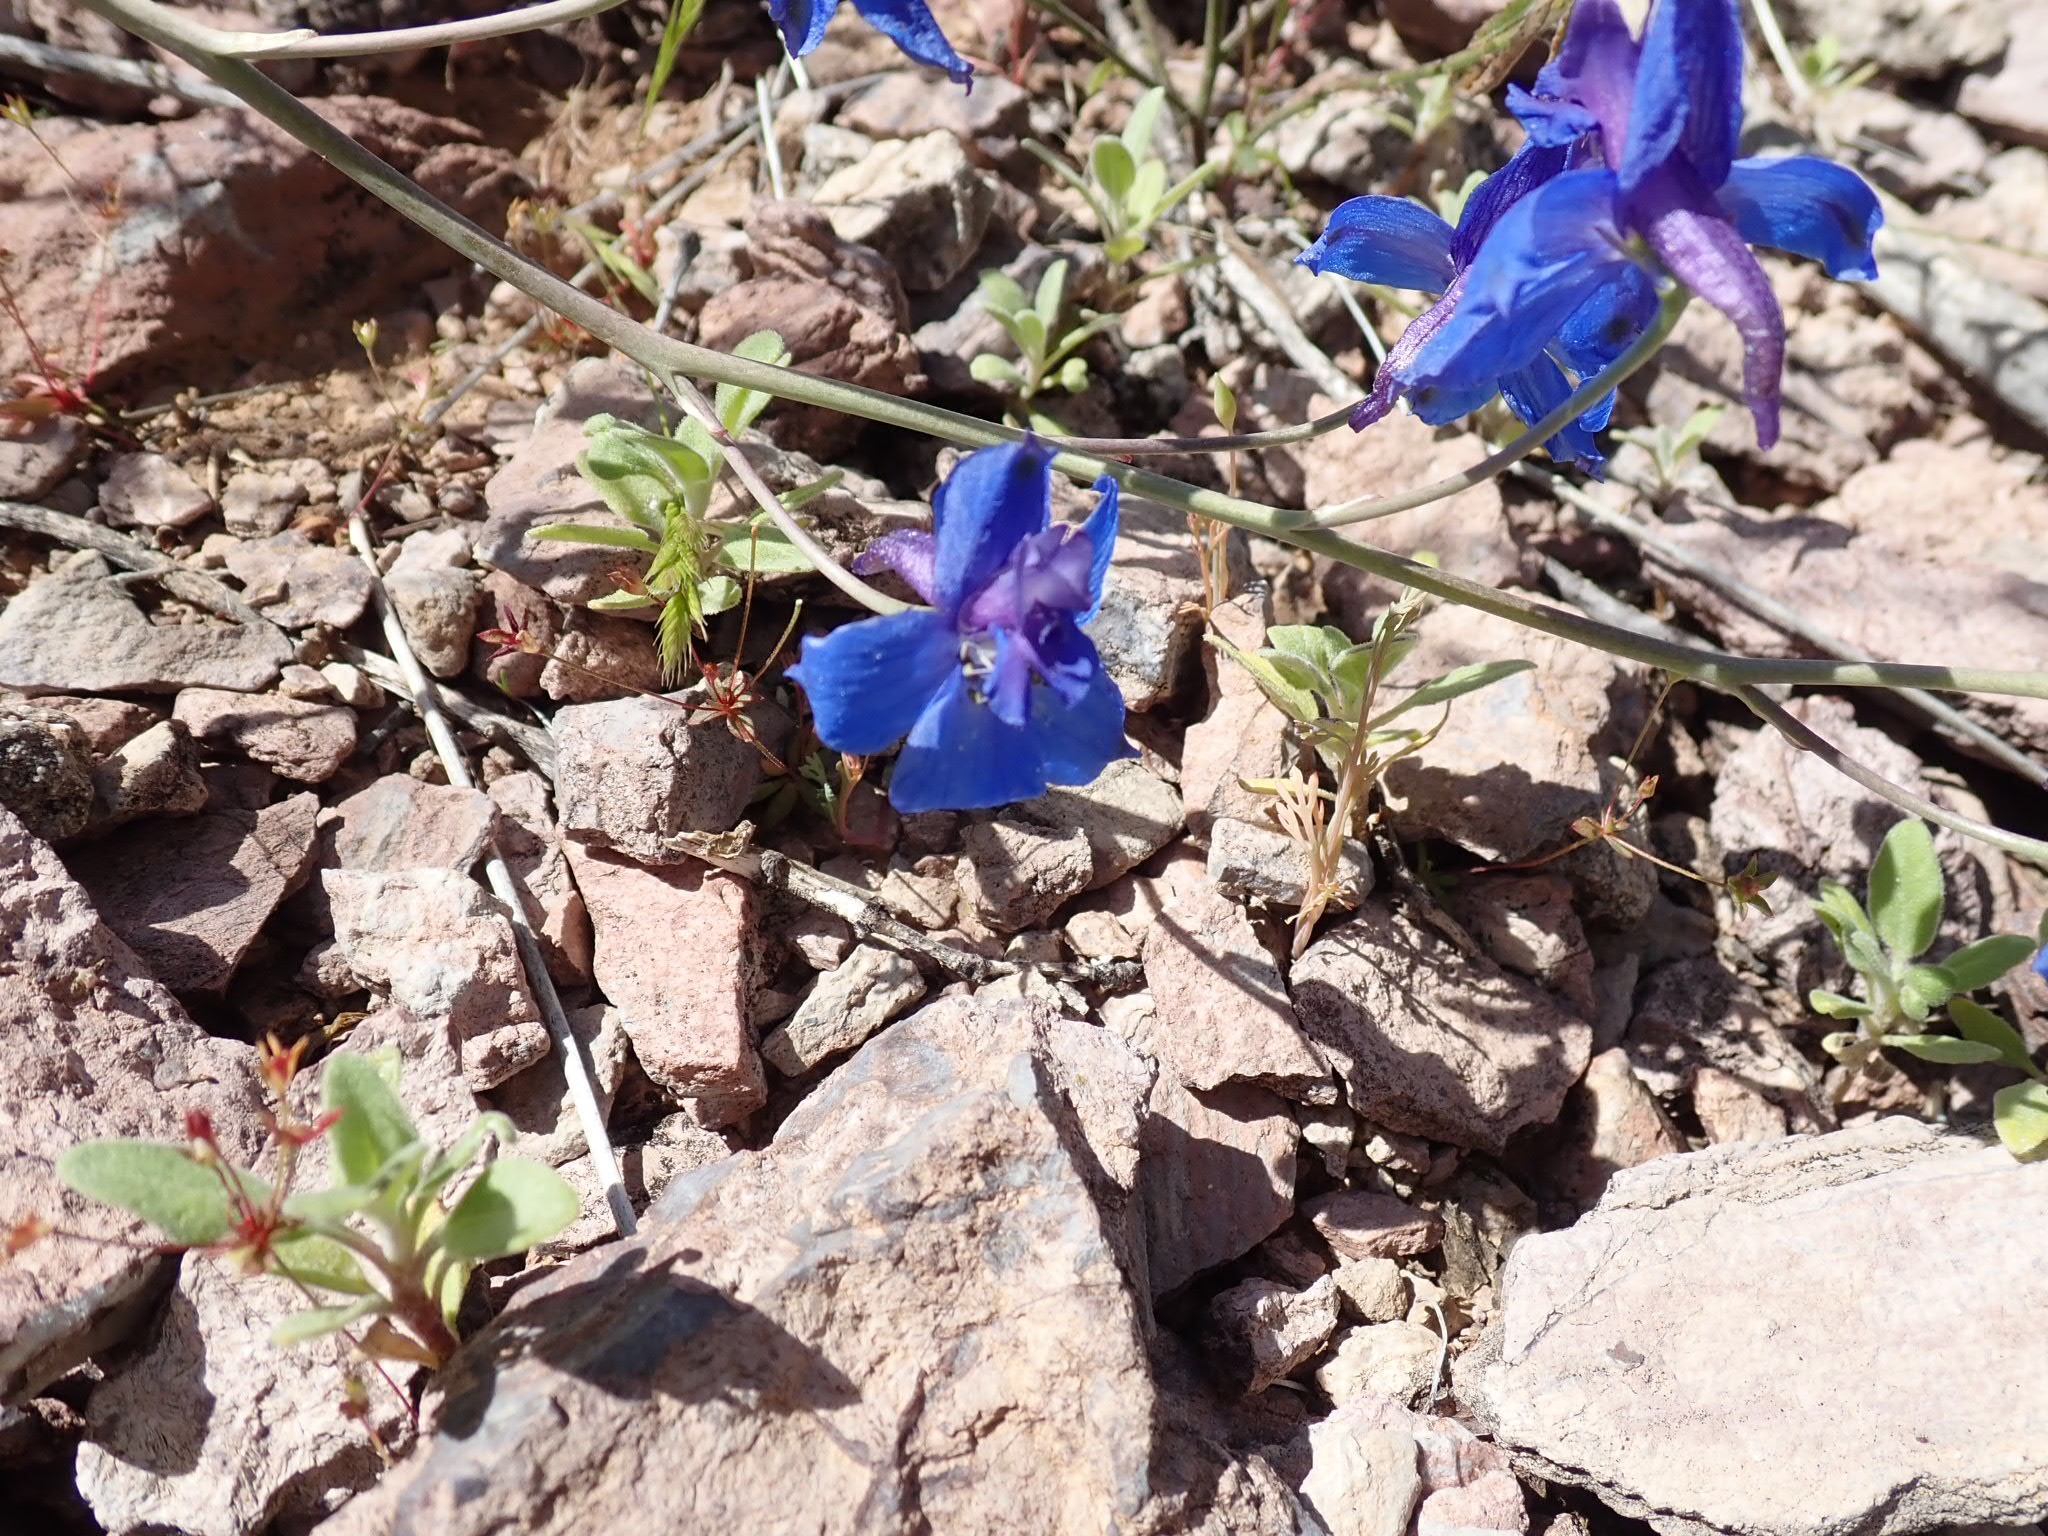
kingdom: Plantae
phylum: Tracheophyta
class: Magnoliopsida
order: Ranunculales
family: Ranunculaceae
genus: Delphinium
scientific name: Delphinium scaposum
